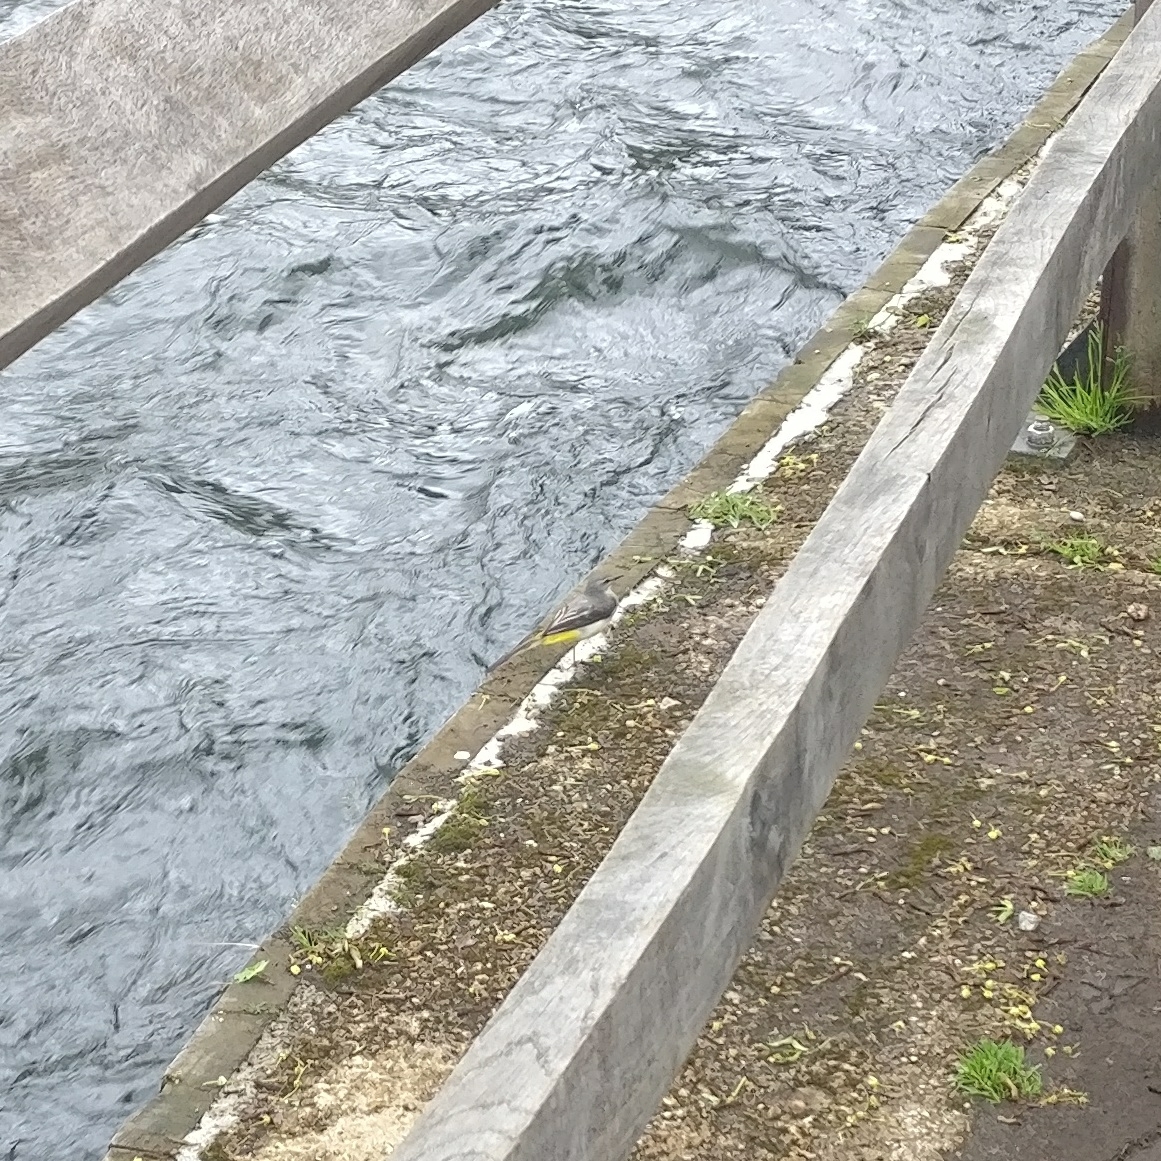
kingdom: Animalia
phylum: Chordata
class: Aves
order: Passeriformes
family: Motacillidae
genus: Motacilla
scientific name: Motacilla cinerea
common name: Grey wagtail
